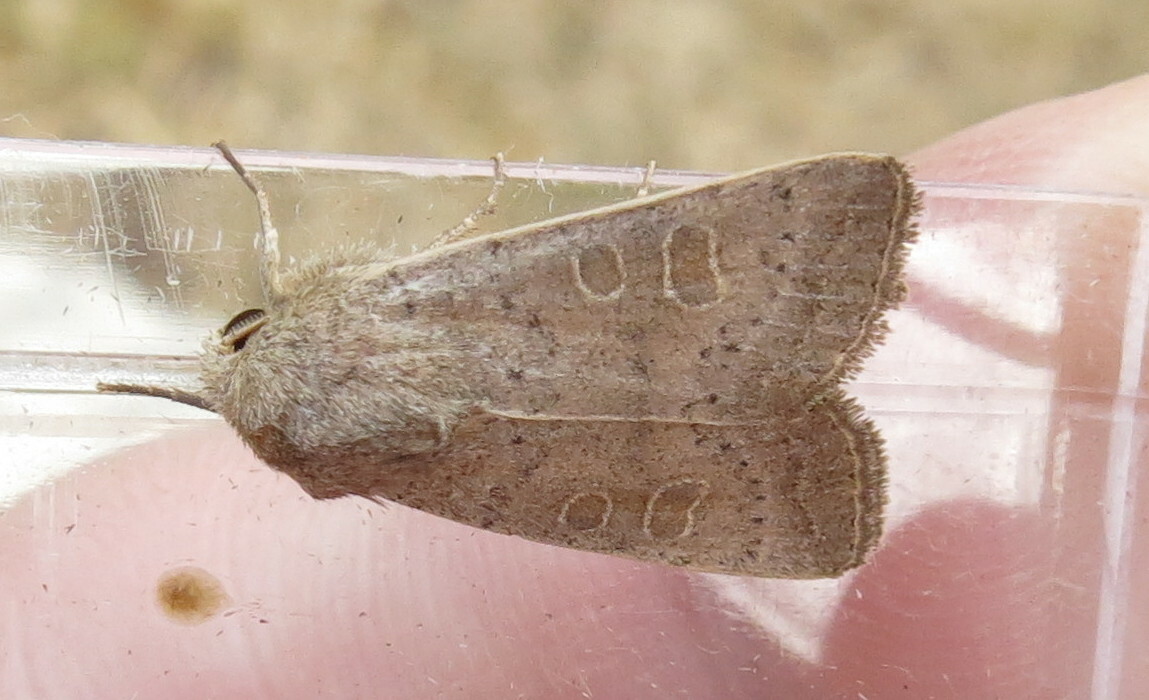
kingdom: Animalia
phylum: Arthropoda
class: Insecta
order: Lepidoptera
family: Noctuidae
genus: Hoplodrina
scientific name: Hoplodrina ambigua
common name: Vine's rustic
